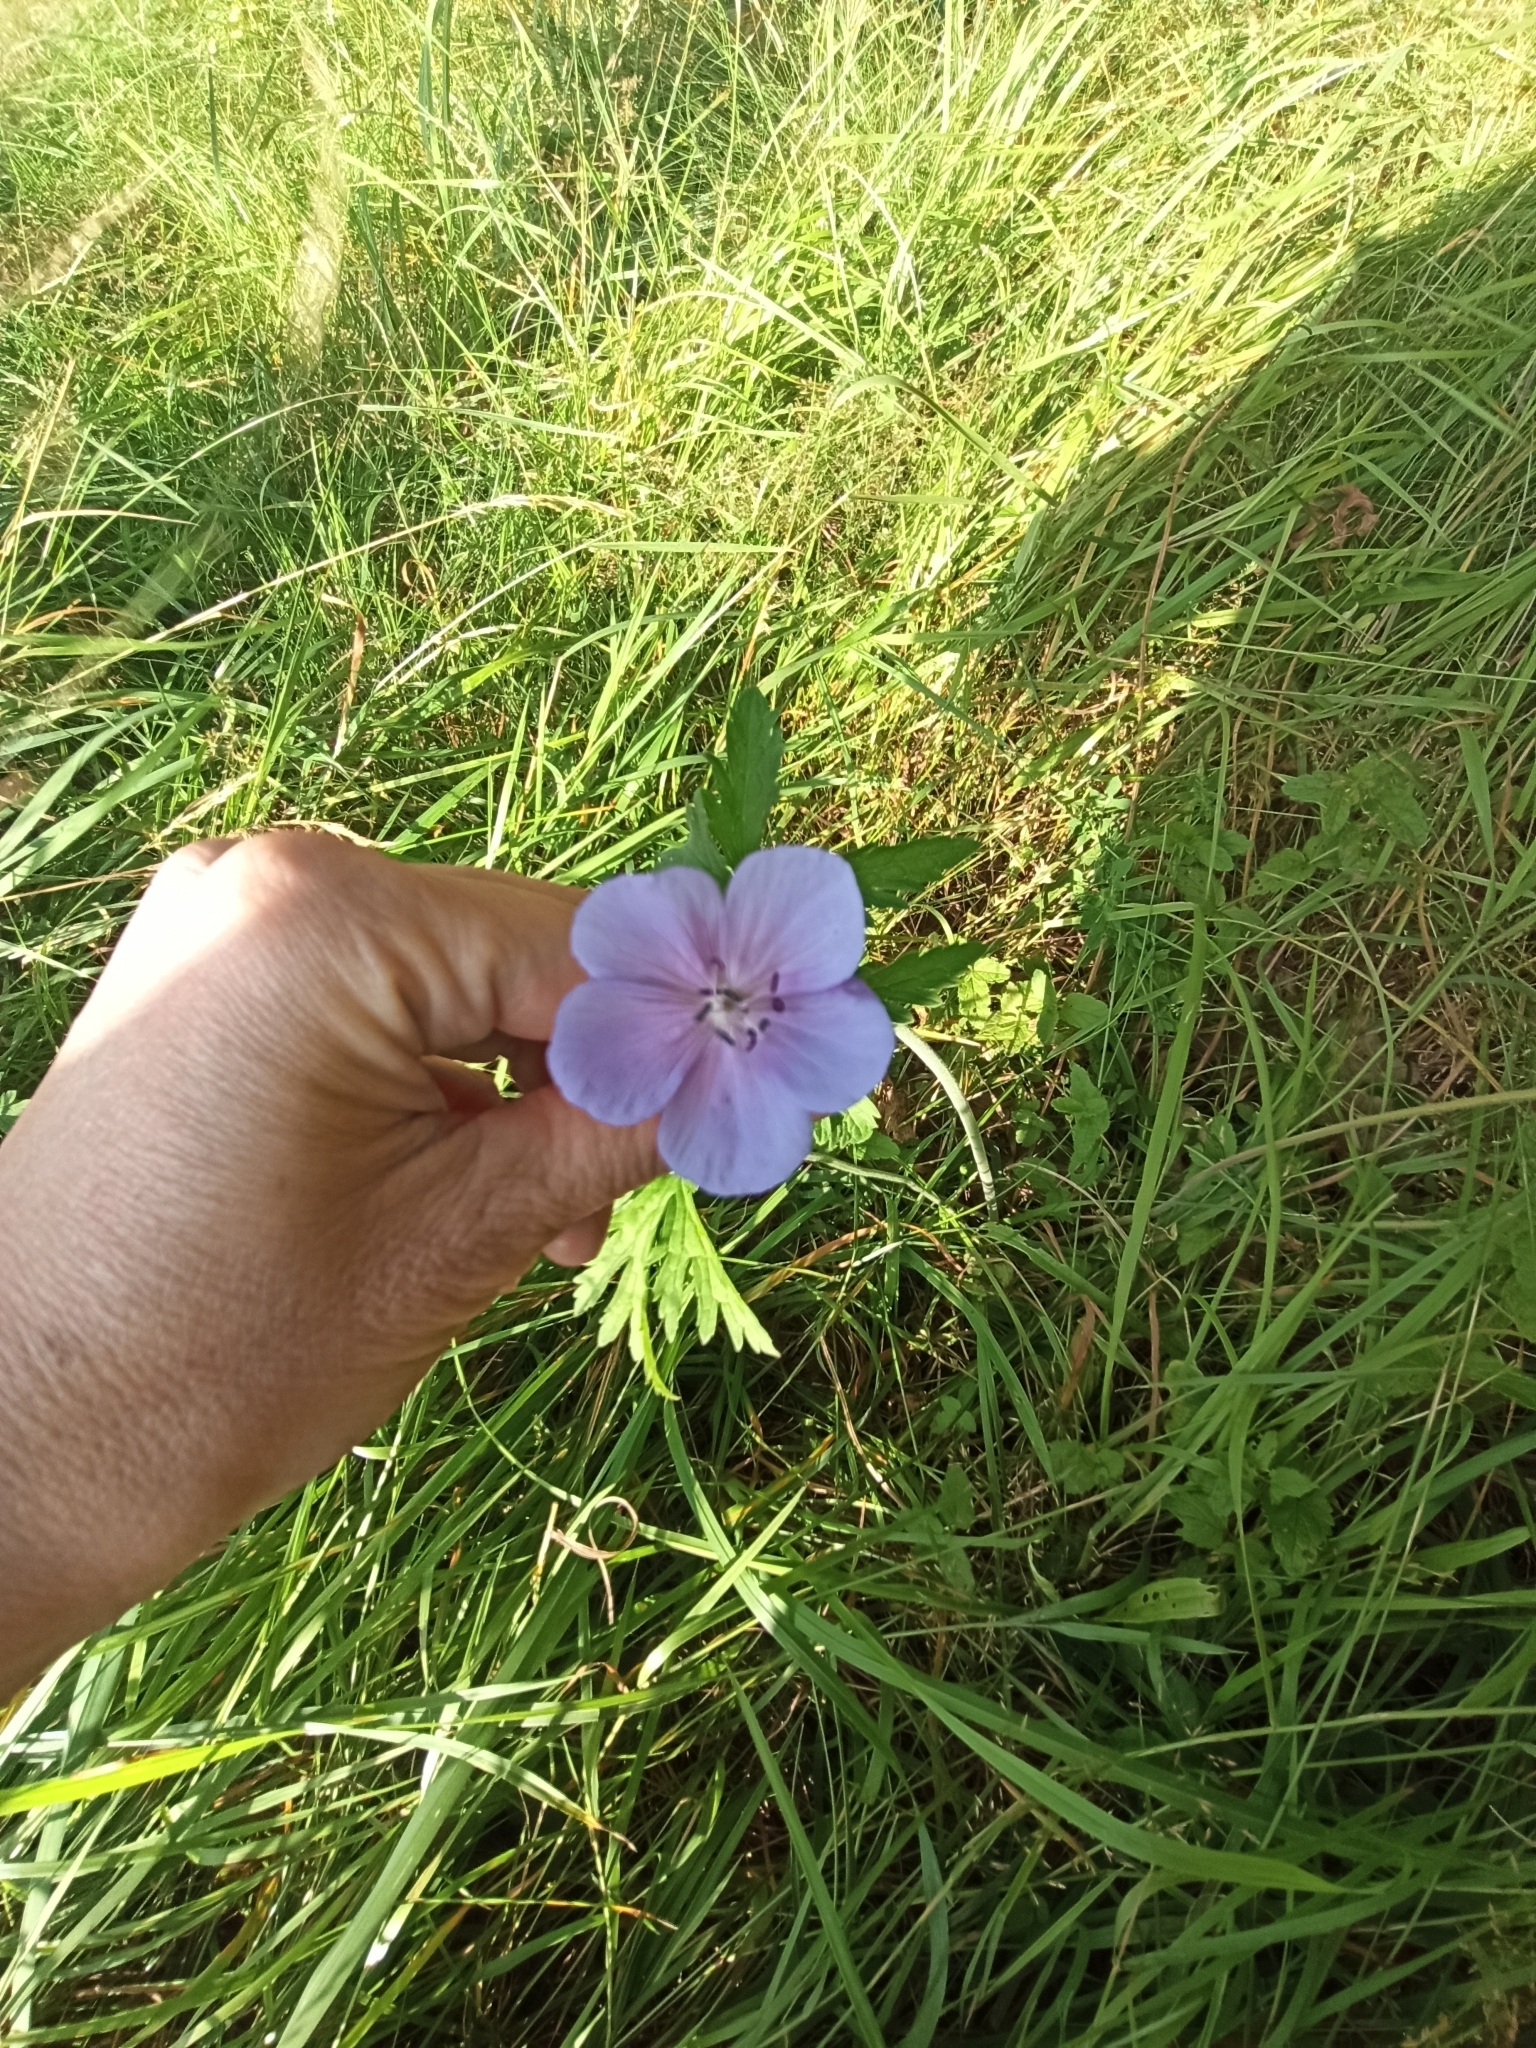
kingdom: Plantae
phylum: Tracheophyta
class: Magnoliopsida
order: Geraniales
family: Geraniaceae
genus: Geranium
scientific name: Geranium pratense
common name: Meadow crane's-bill
